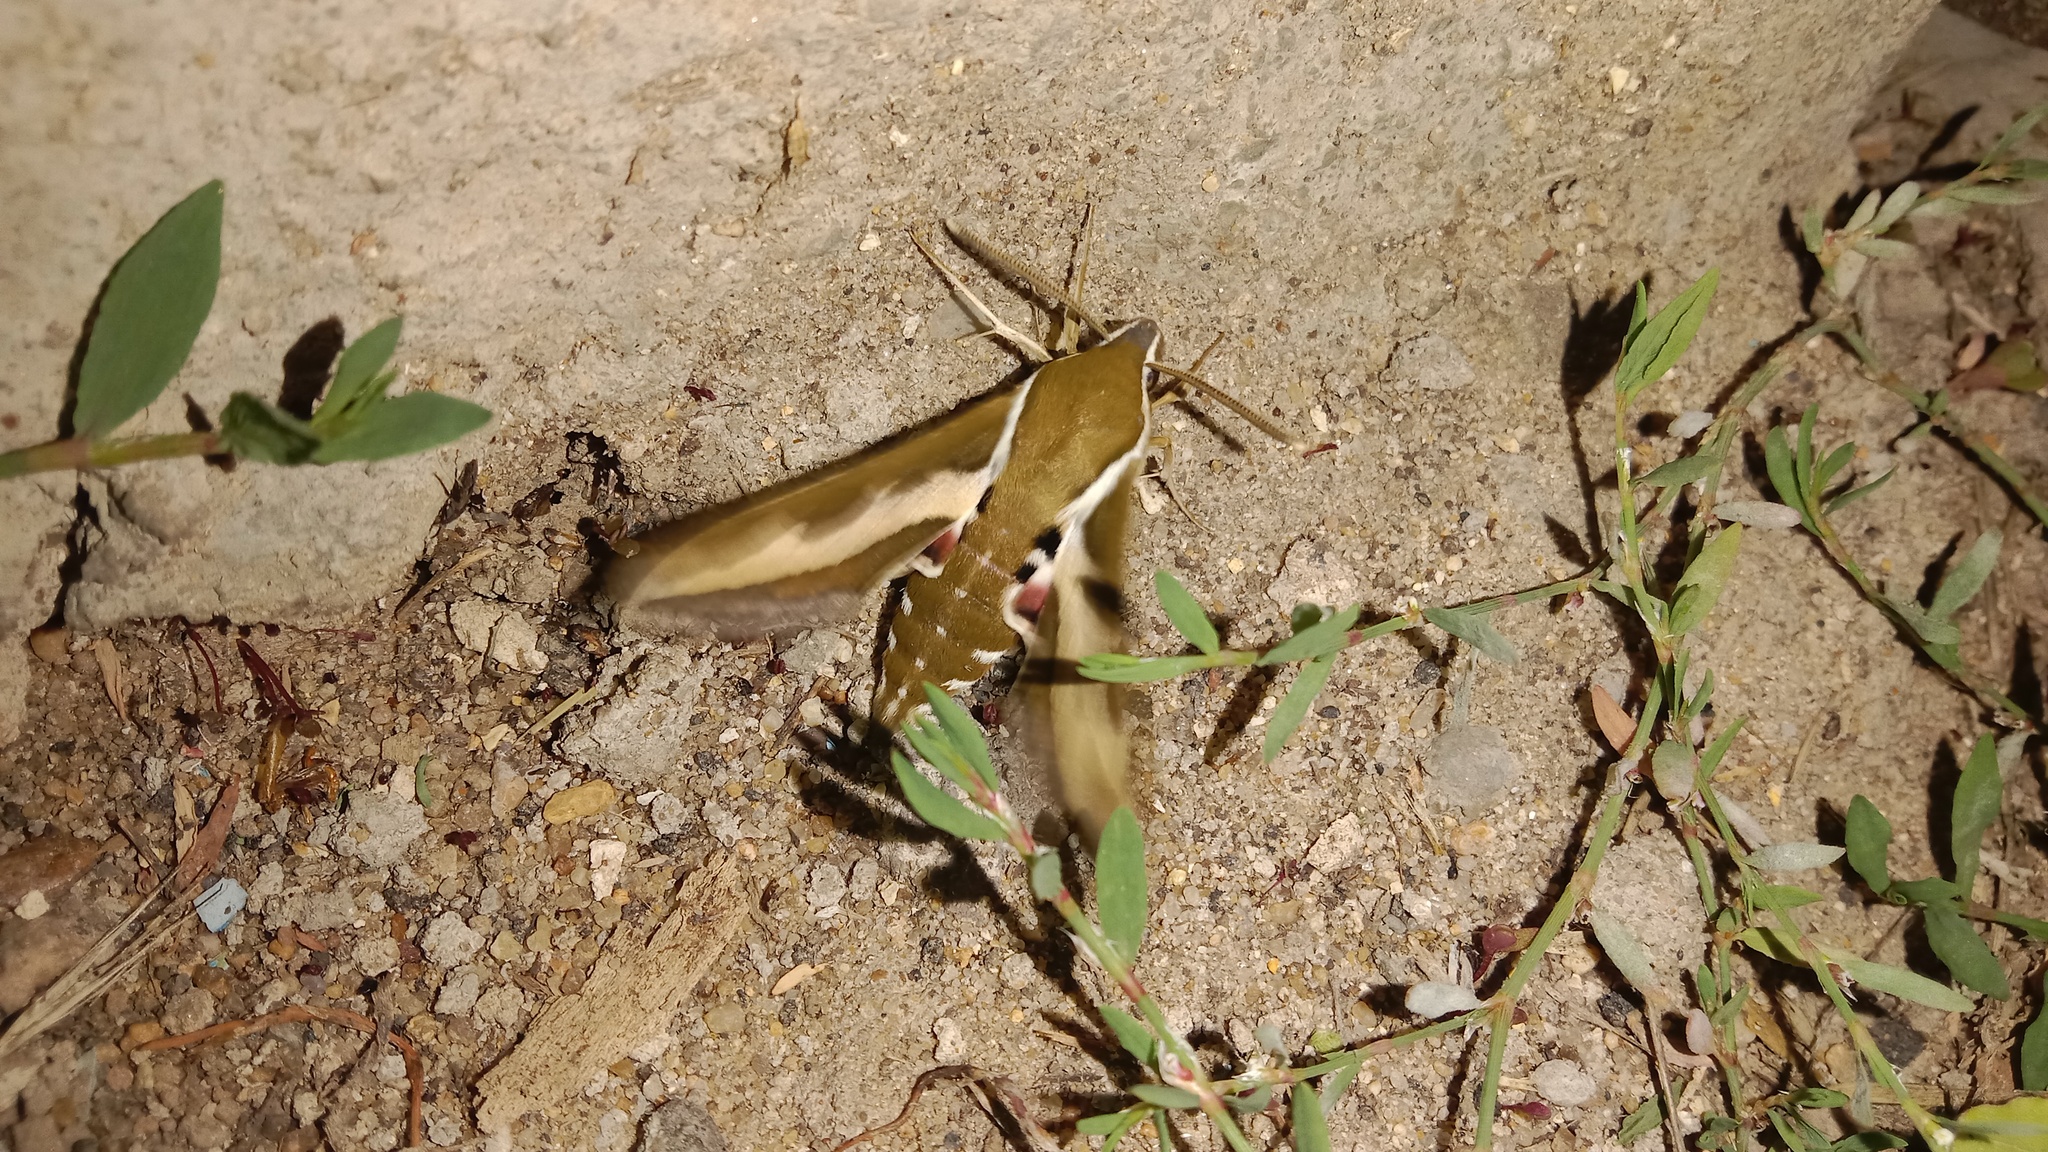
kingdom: Animalia
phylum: Arthropoda
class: Insecta
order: Lepidoptera
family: Sphingidae
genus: Hyles
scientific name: Hyles gallii
